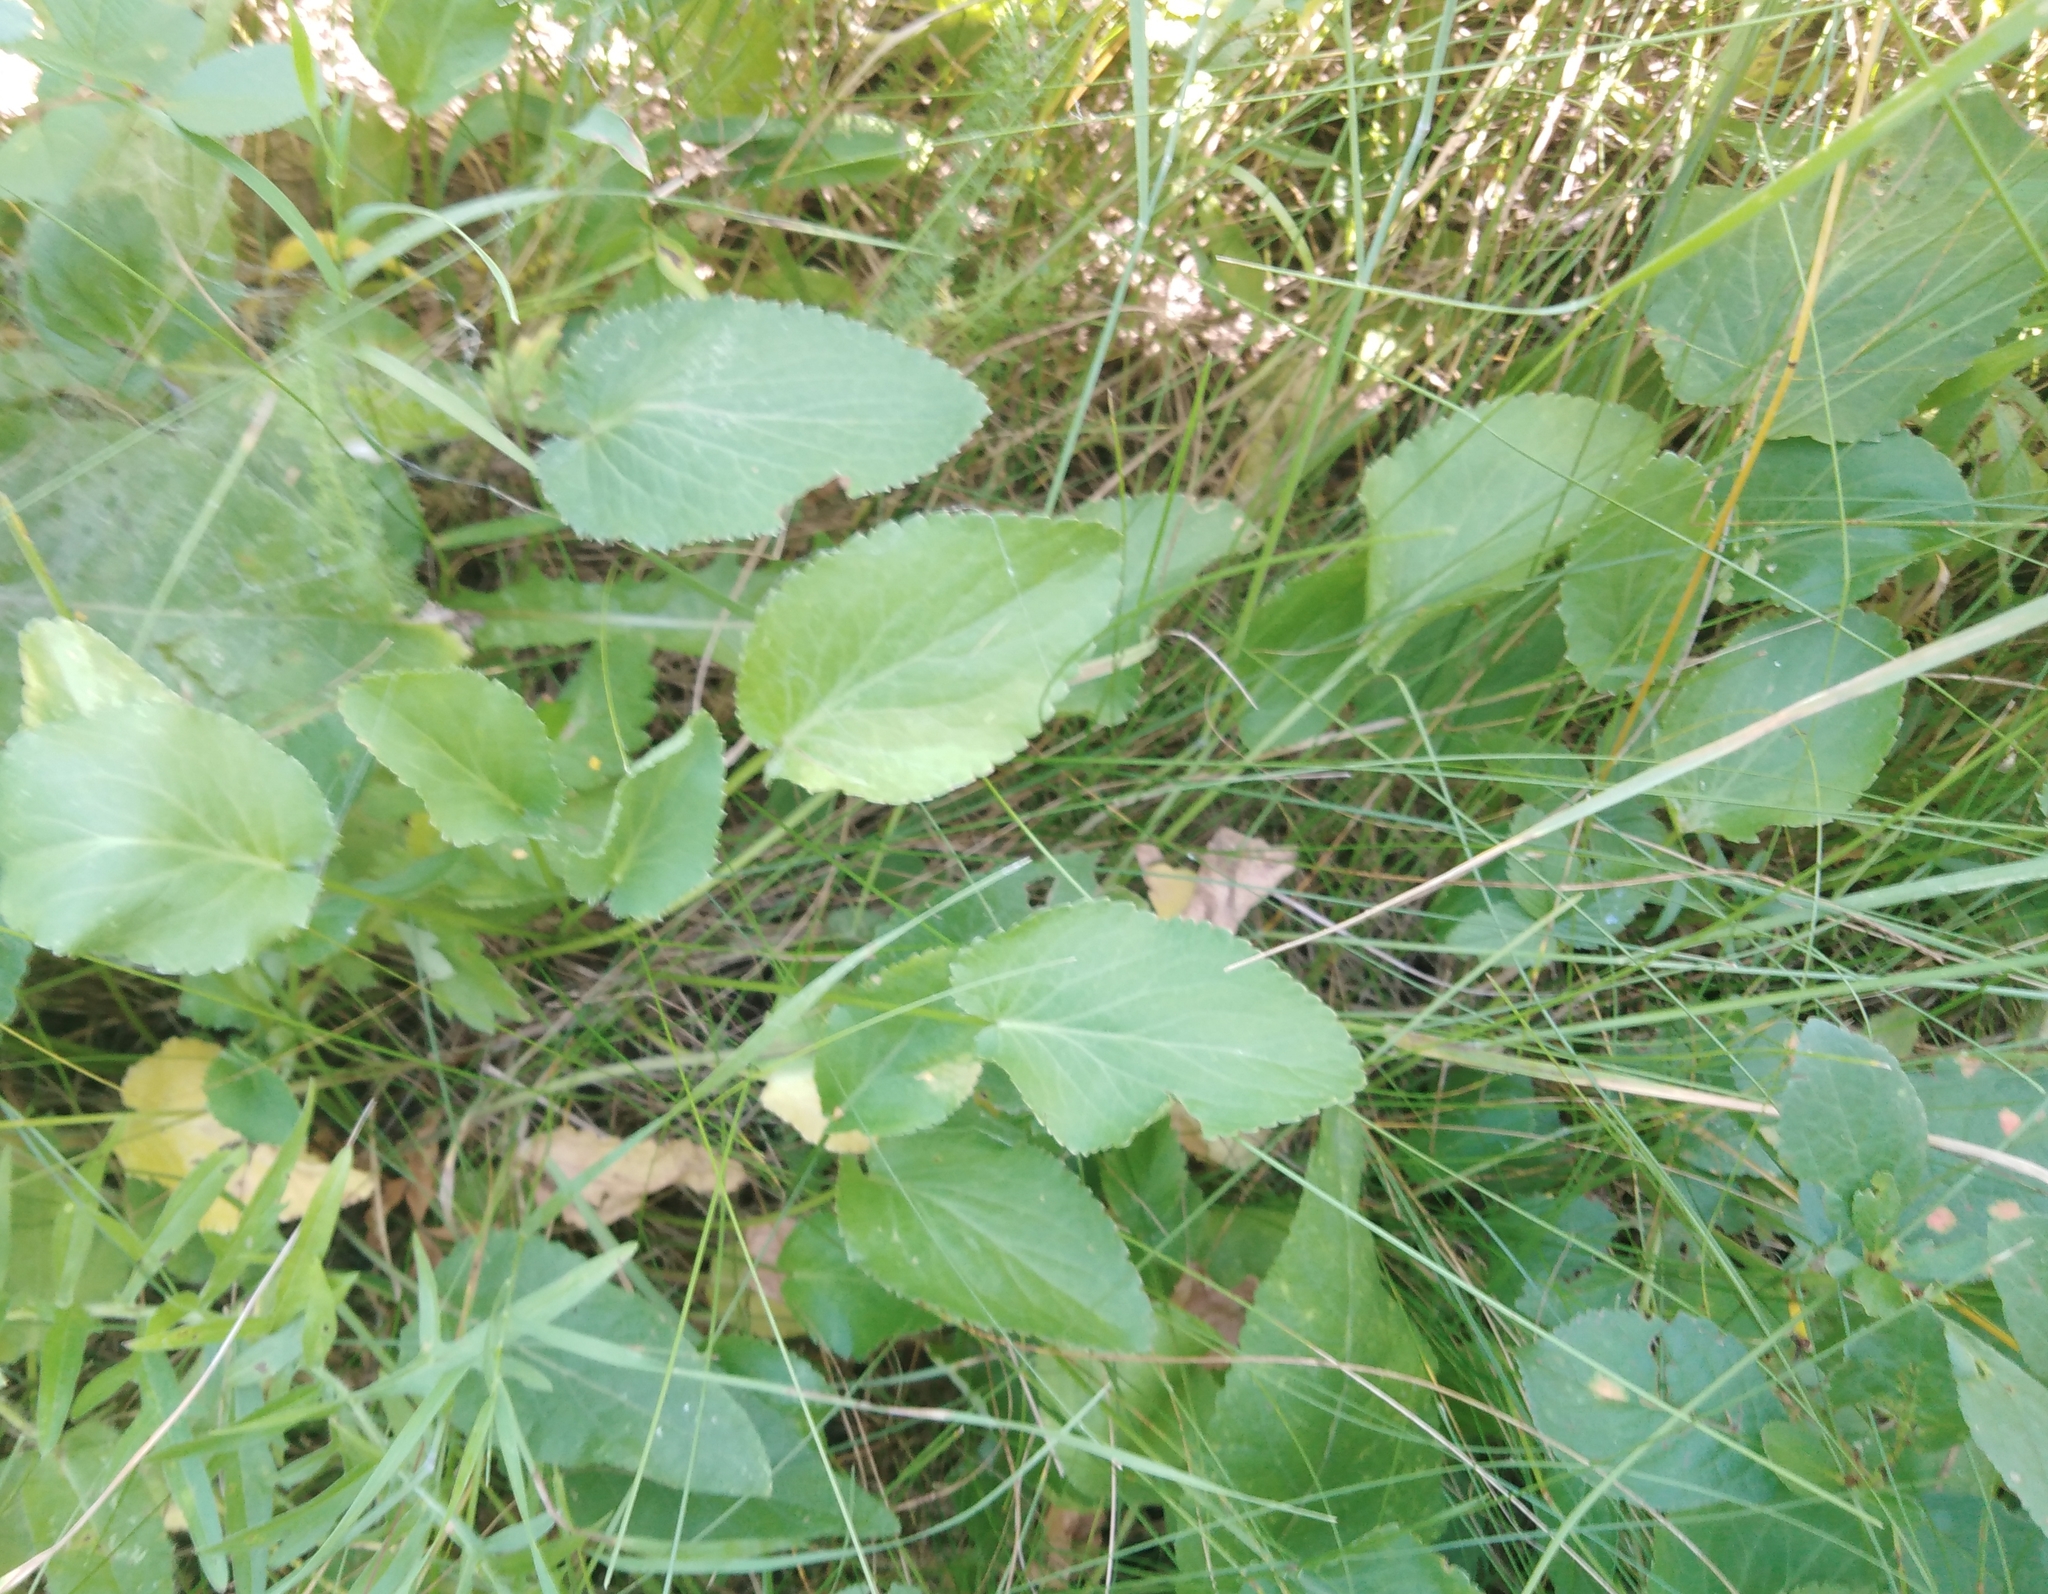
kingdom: Plantae
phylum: Tracheophyta
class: Magnoliopsida
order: Apiales
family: Apiaceae
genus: Eryngium
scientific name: Eryngium planum
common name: Blue eryngo
